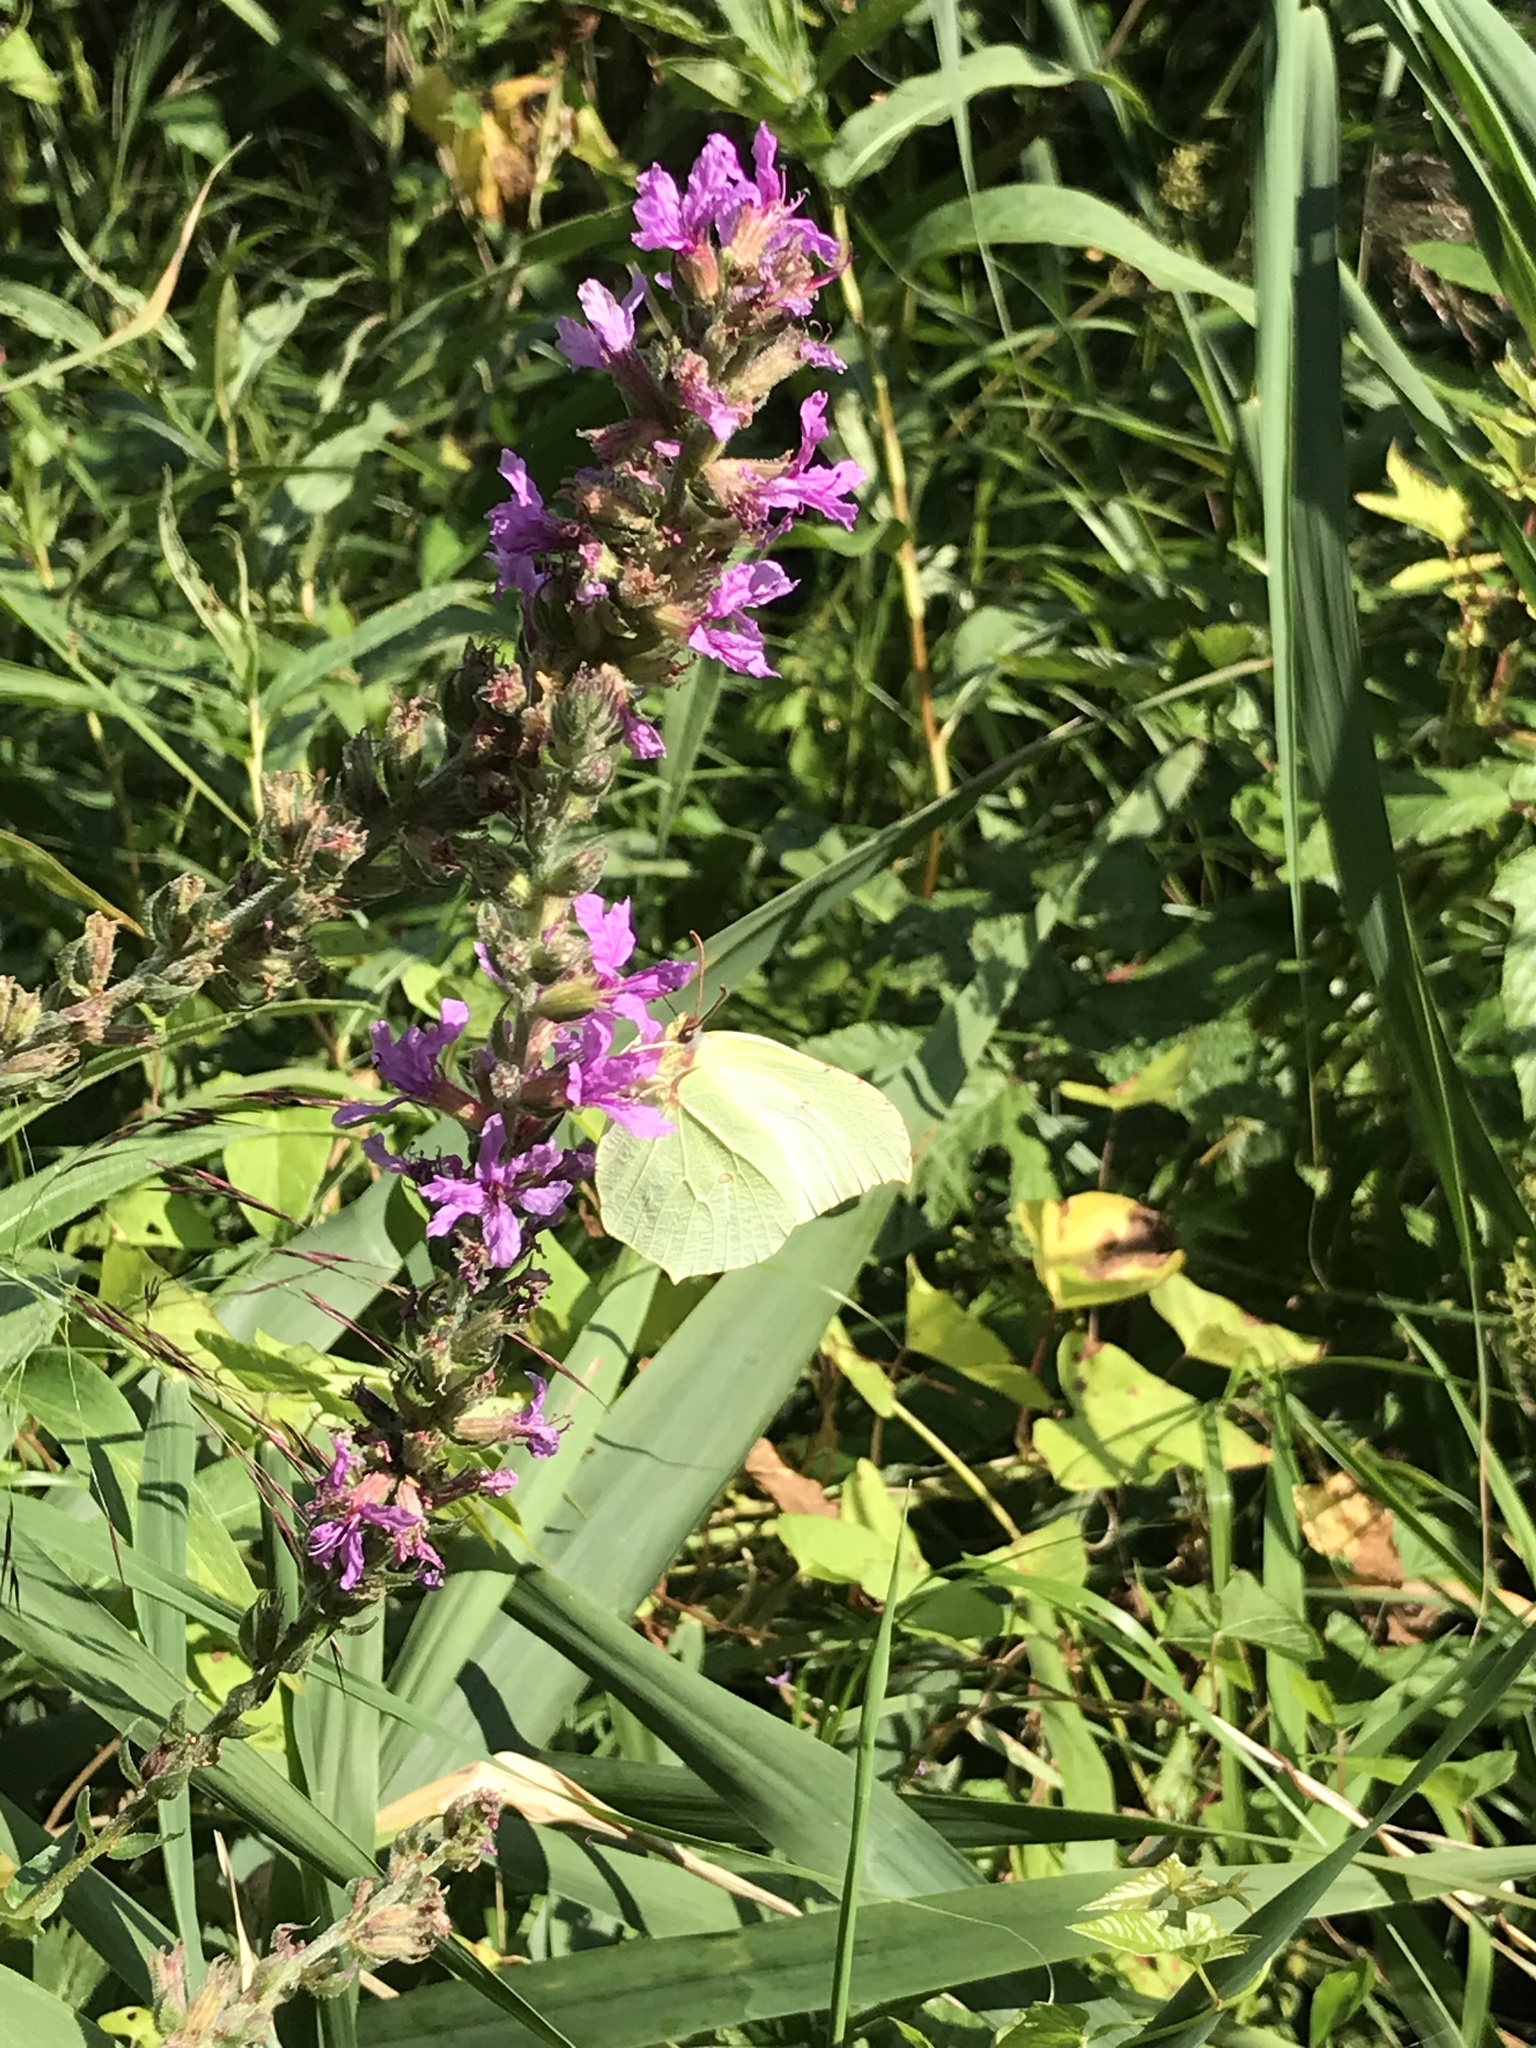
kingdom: Animalia
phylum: Arthropoda
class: Insecta
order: Lepidoptera
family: Pieridae
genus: Gonepteryx
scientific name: Gonepteryx rhamni
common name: Brimstone
